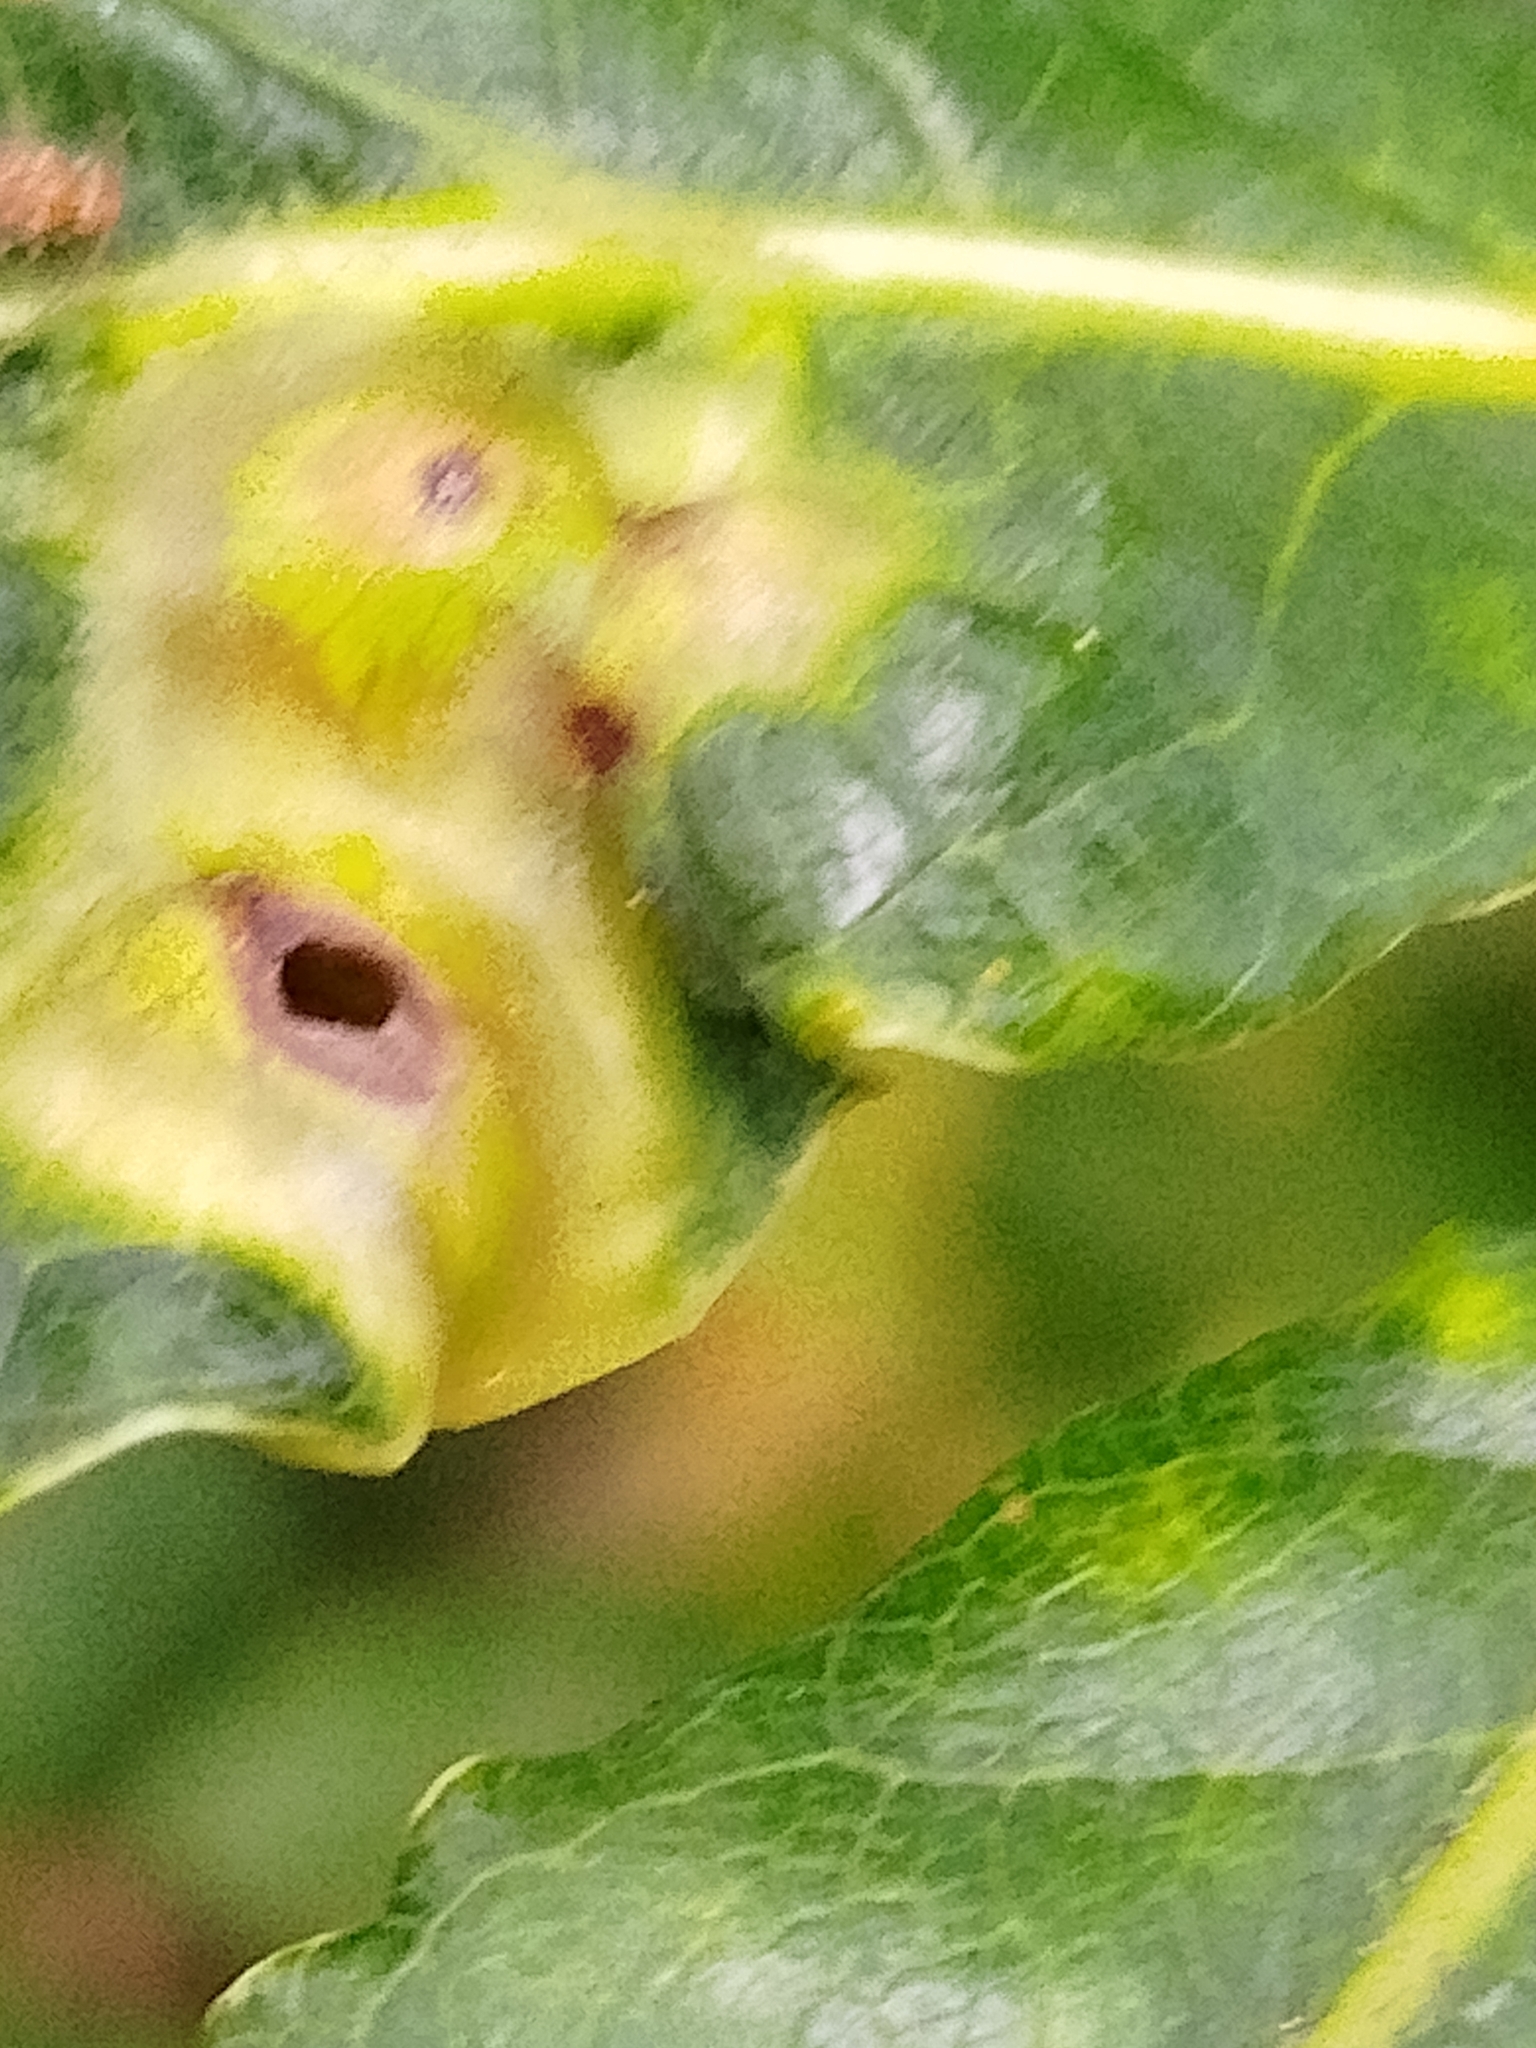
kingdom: Animalia
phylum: Arthropoda
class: Insecta
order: Hymenoptera
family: Cynipidae
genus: Andricus
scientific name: Andricus curvator
